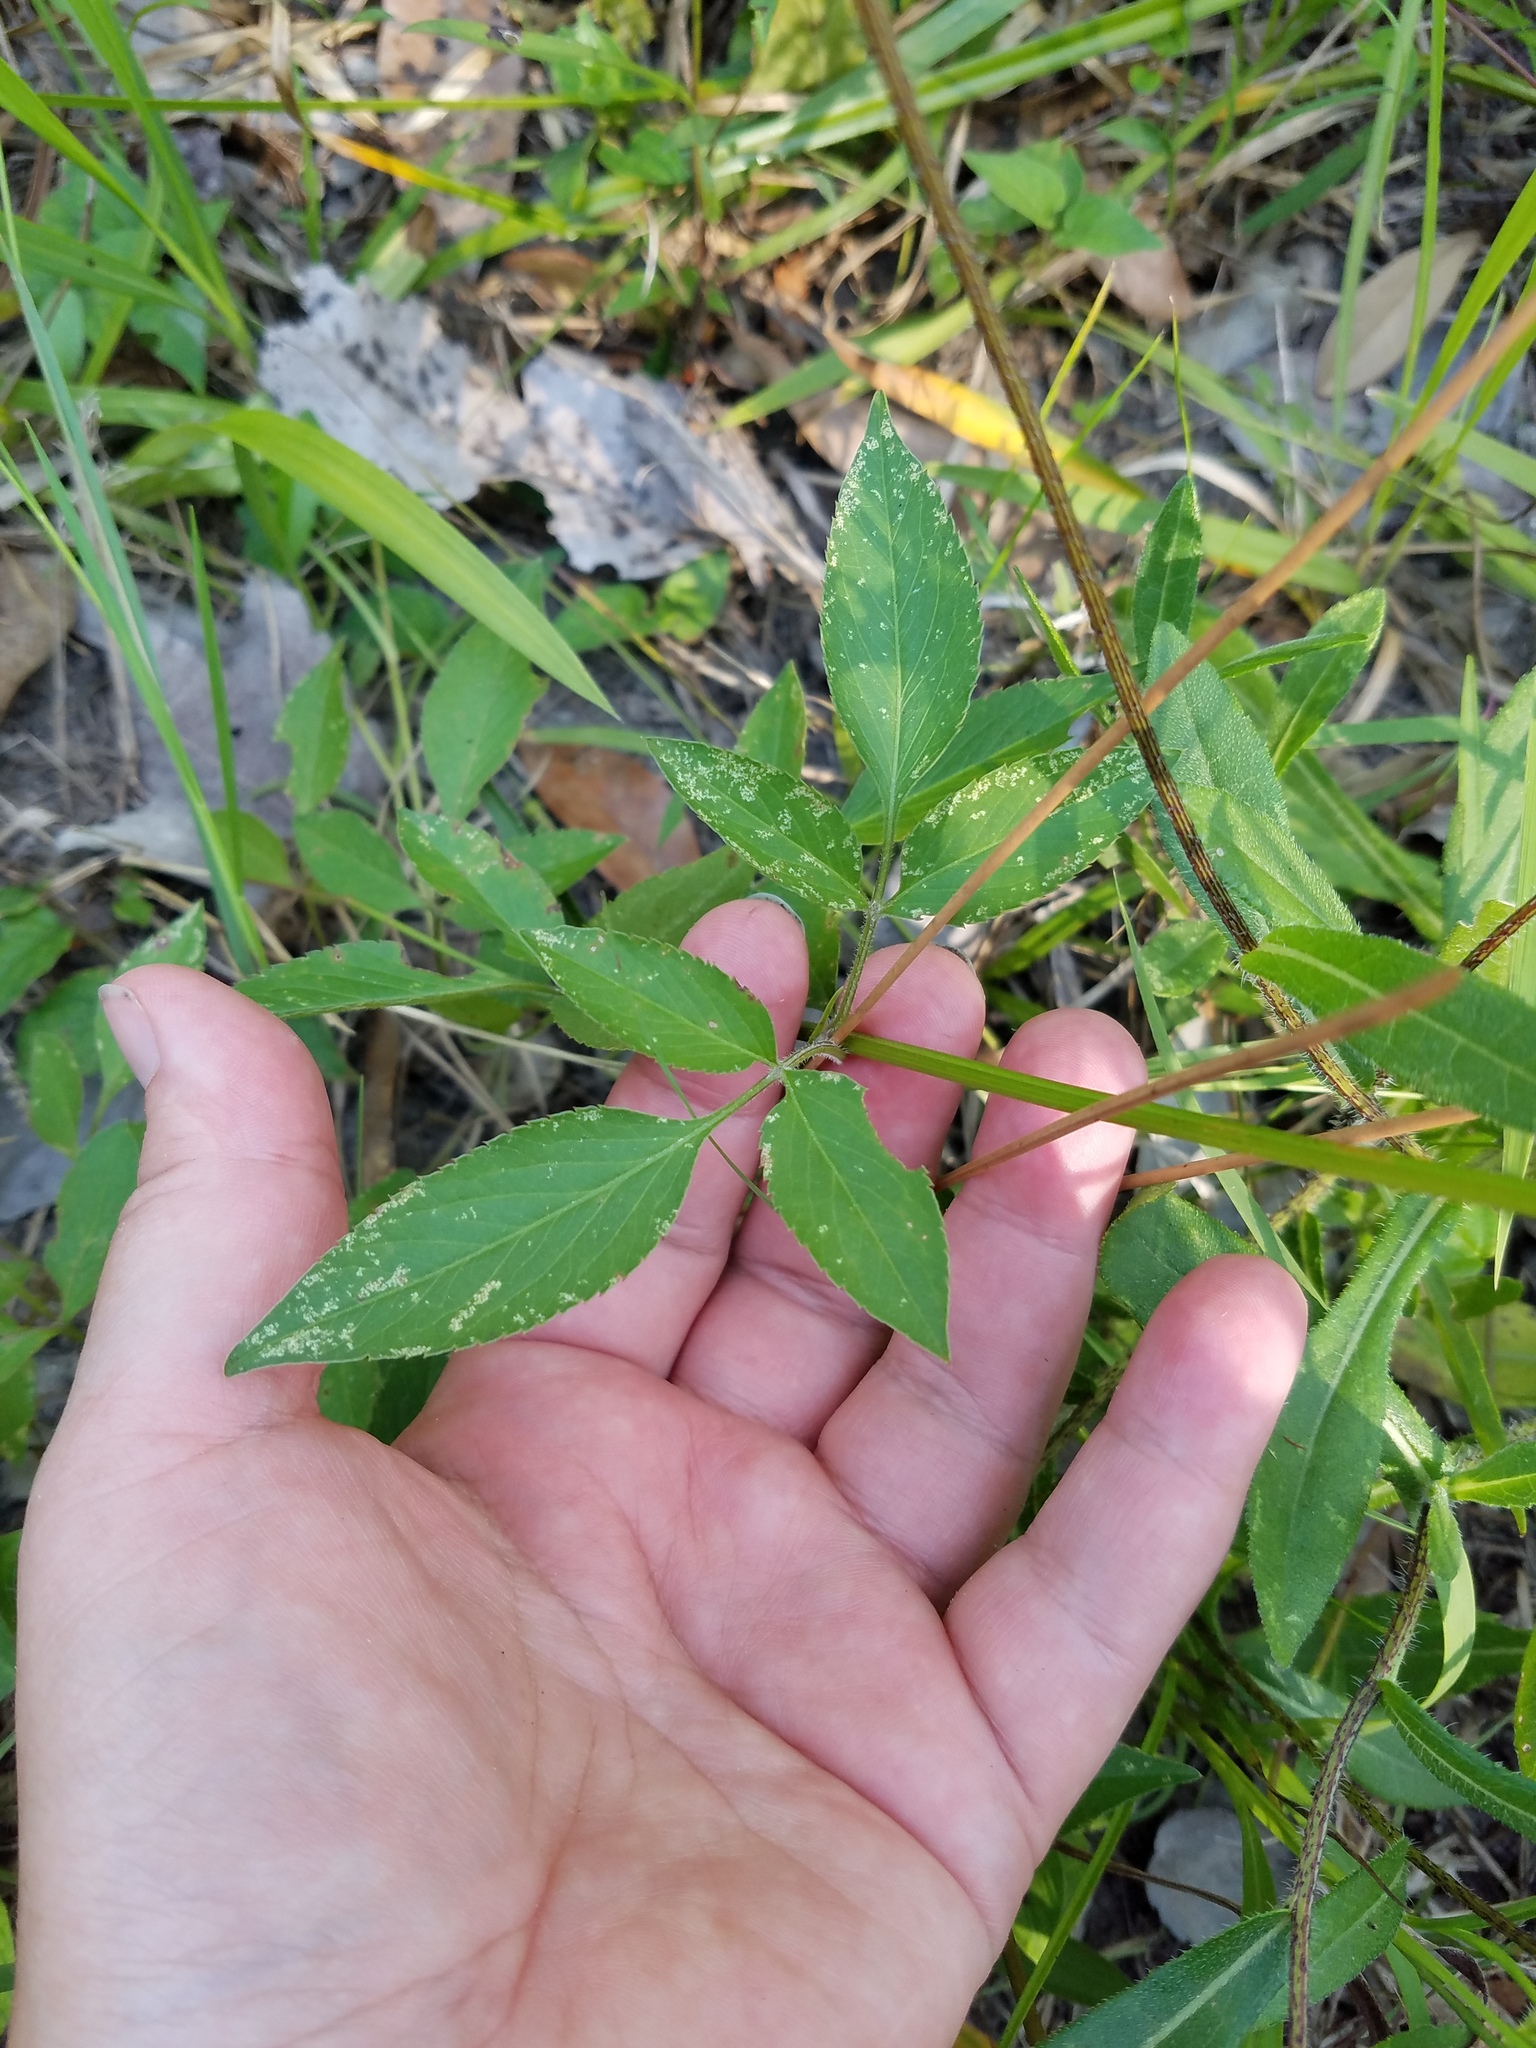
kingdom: Plantae
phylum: Tracheophyta
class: Magnoliopsida
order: Asterales
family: Asteraceae
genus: Bidens
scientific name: Bidens alba
